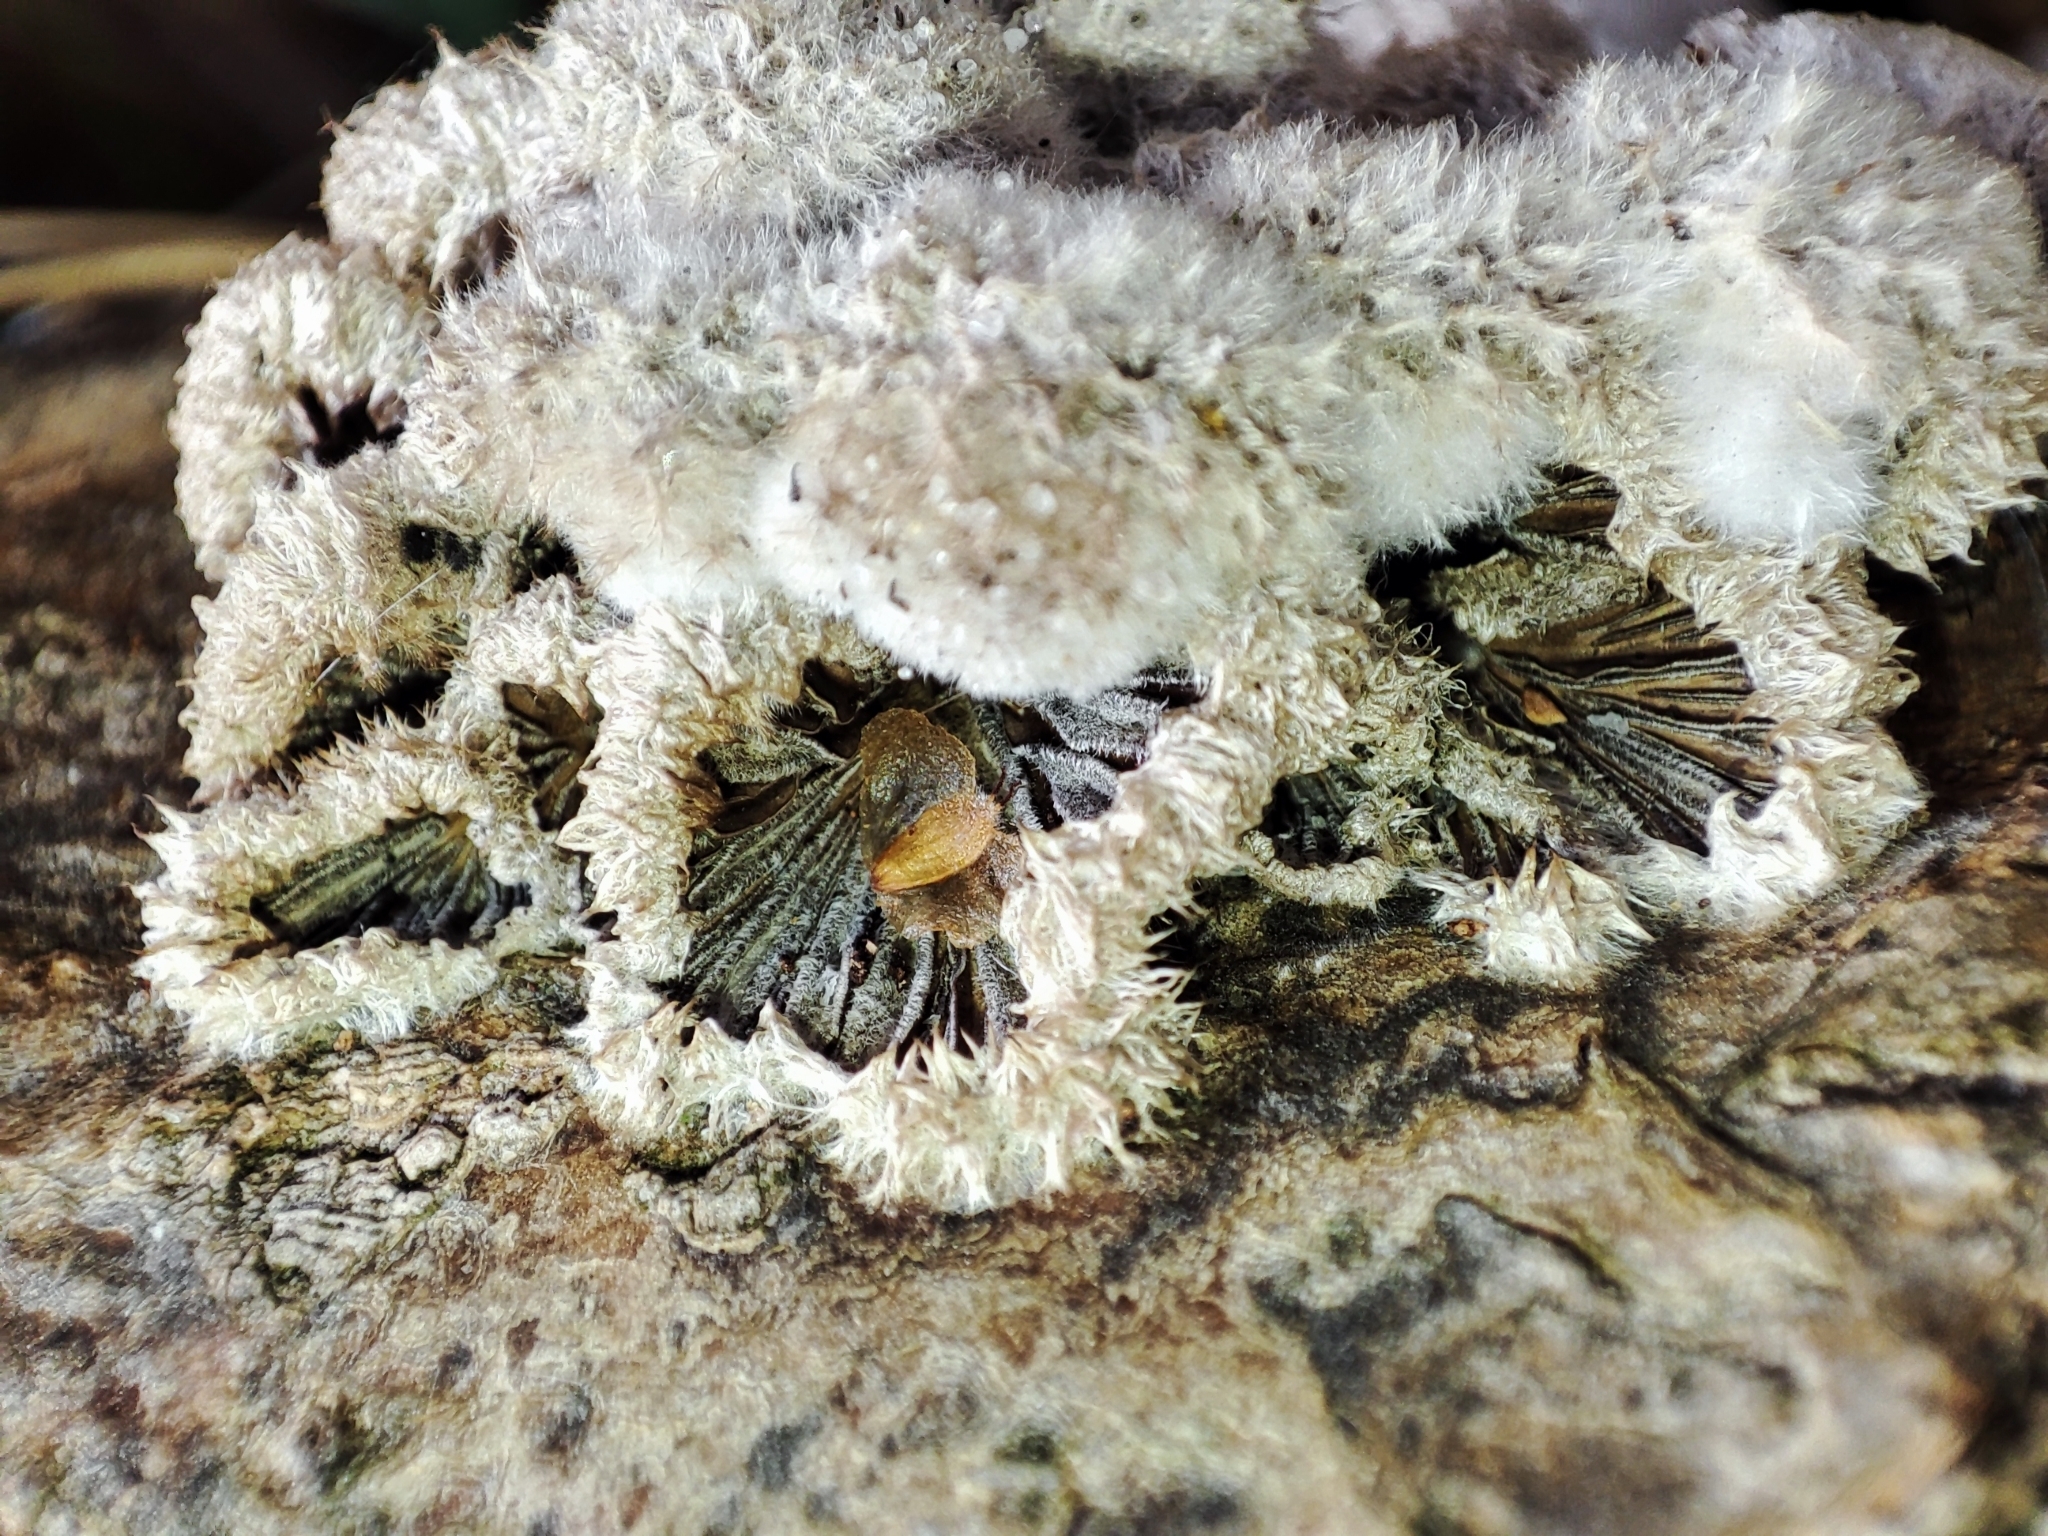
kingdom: Fungi
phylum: Basidiomycota
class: Agaricomycetes
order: Agaricales
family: Schizophyllaceae
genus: Schizophyllum
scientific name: Schizophyllum commune
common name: Common porecrust
